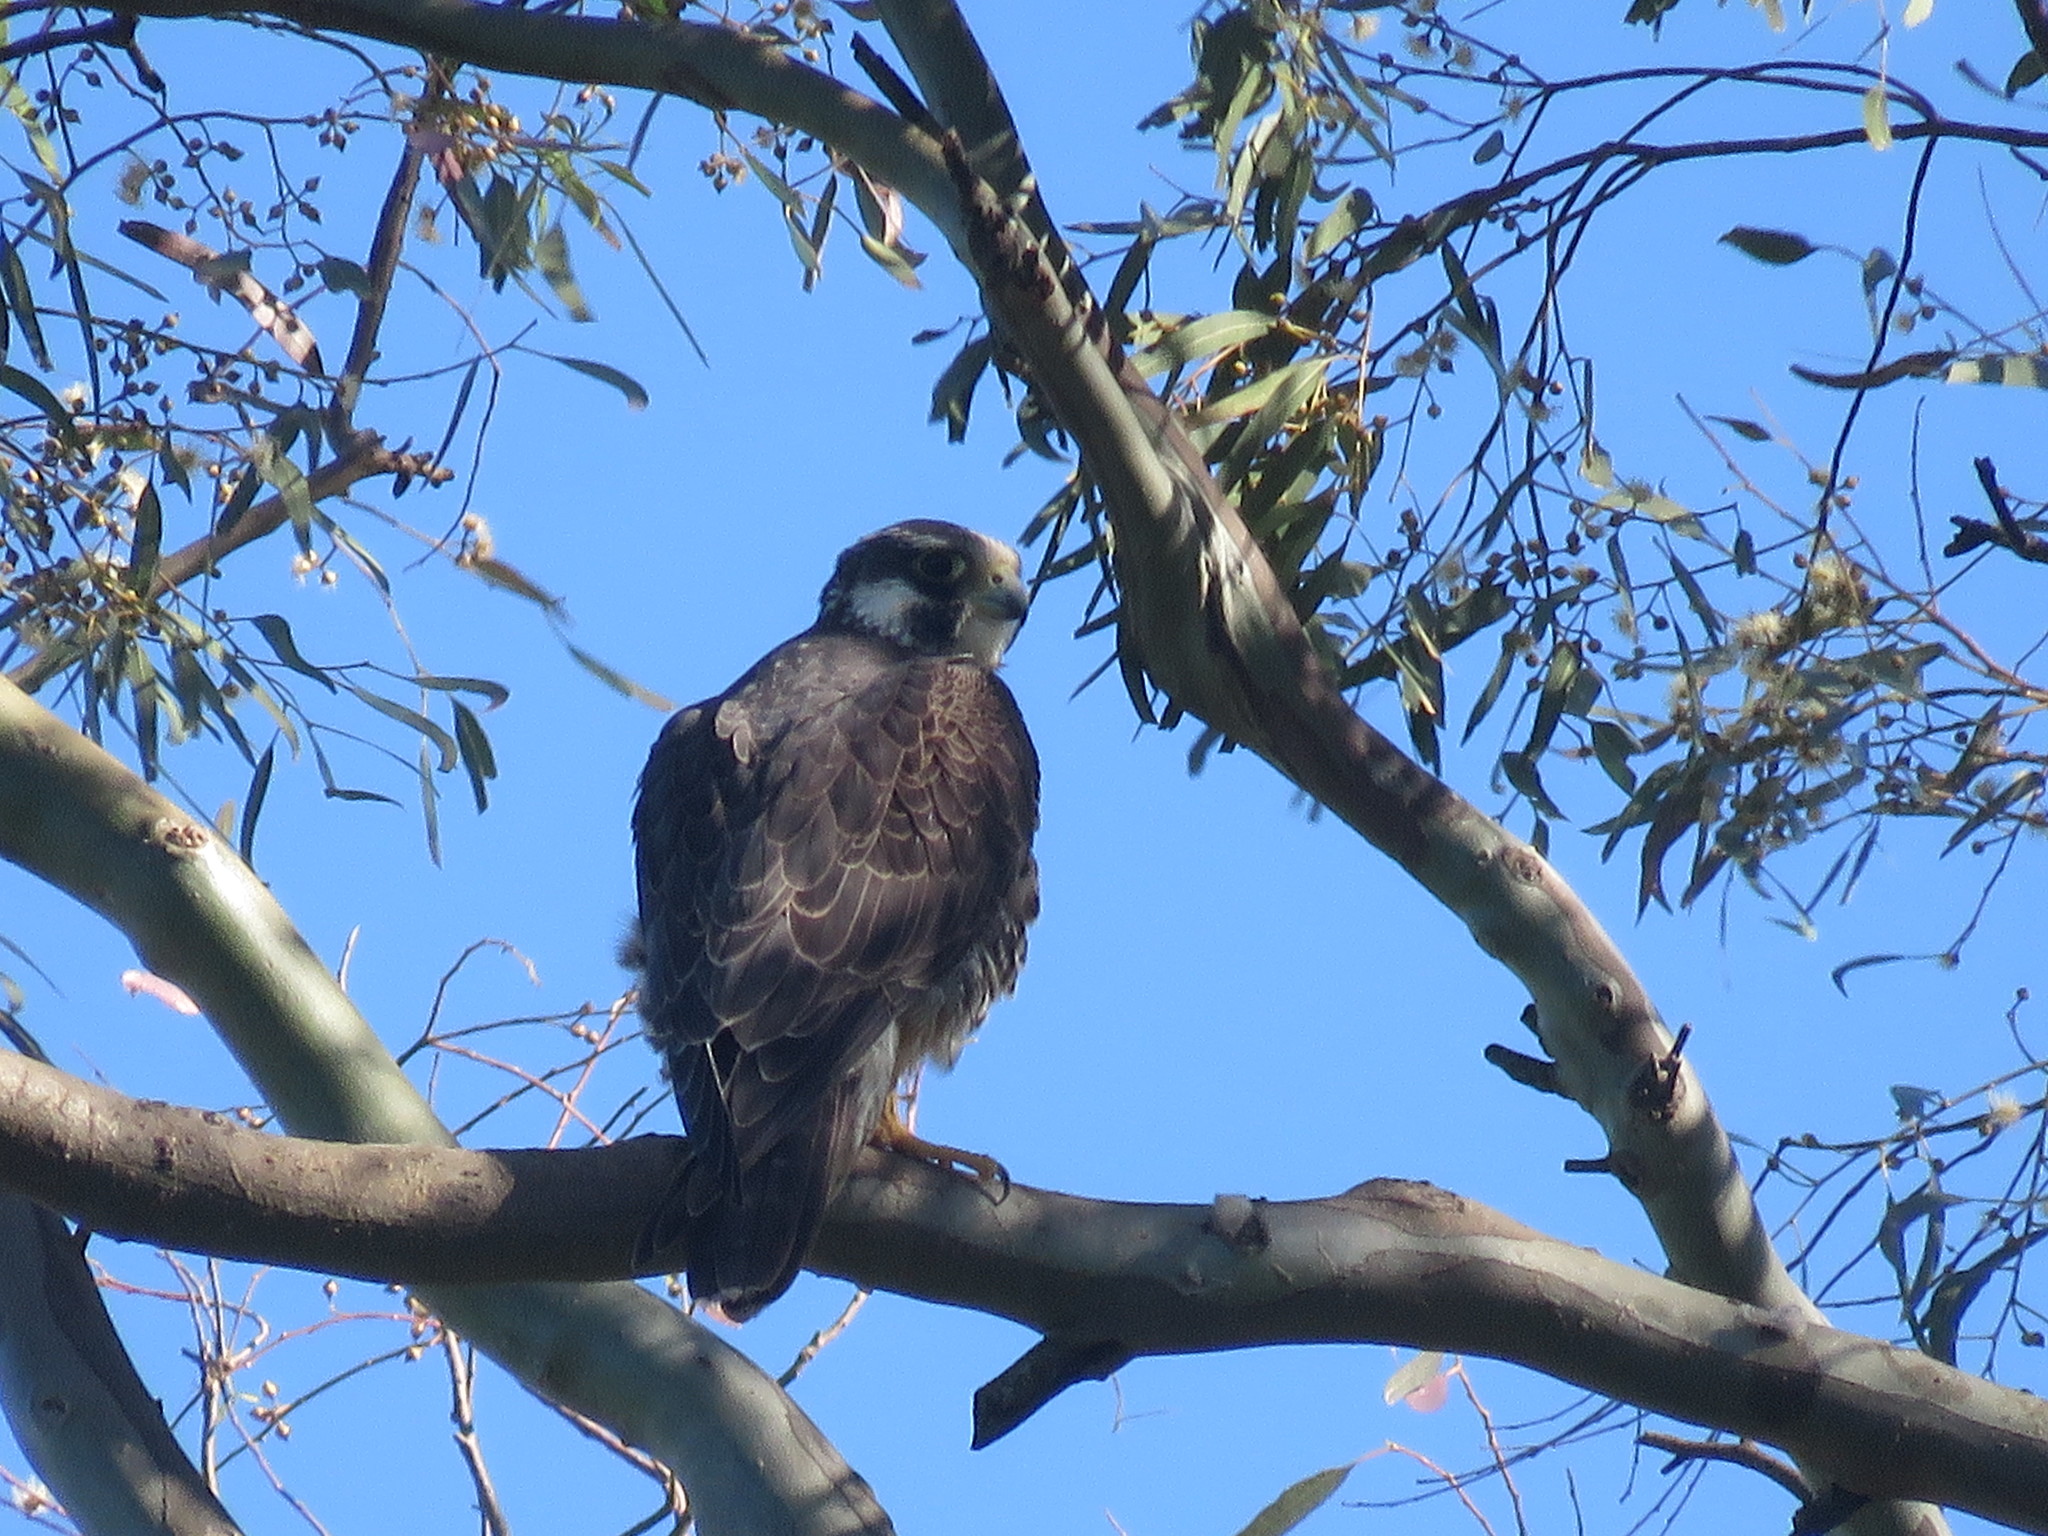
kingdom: Animalia
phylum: Chordata
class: Aves
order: Falconiformes
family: Falconidae
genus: Falco
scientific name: Falco peregrinus
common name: Peregrine falcon
